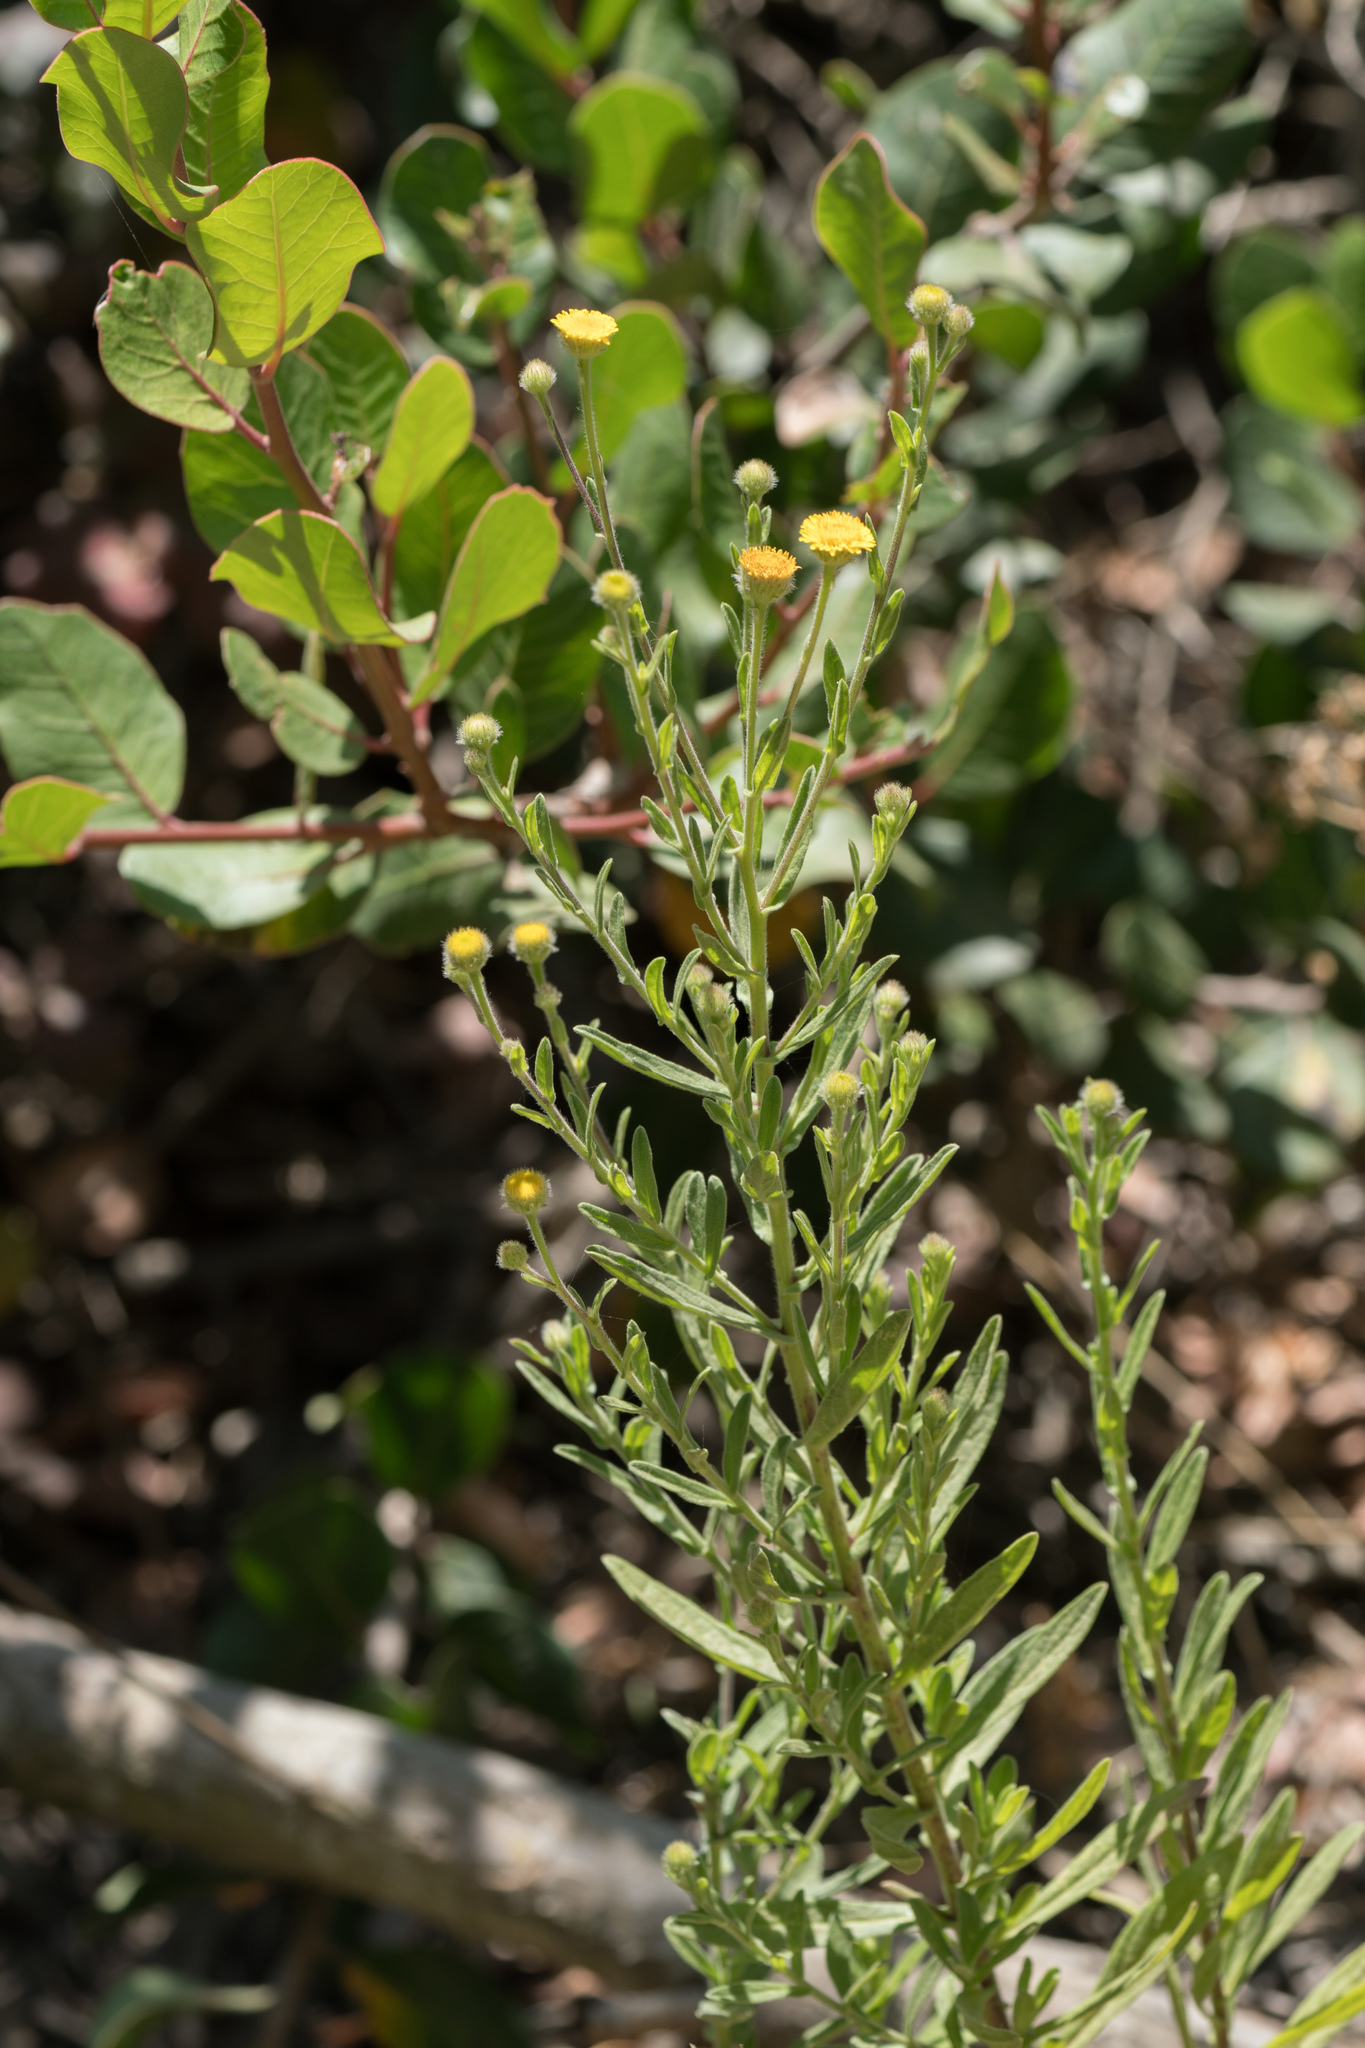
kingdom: Plantae
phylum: Tracheophyta
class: Magnoliopsida
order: Asterales
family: Asteraceae
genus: Pulicaria
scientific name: Pulicaria paludosa
